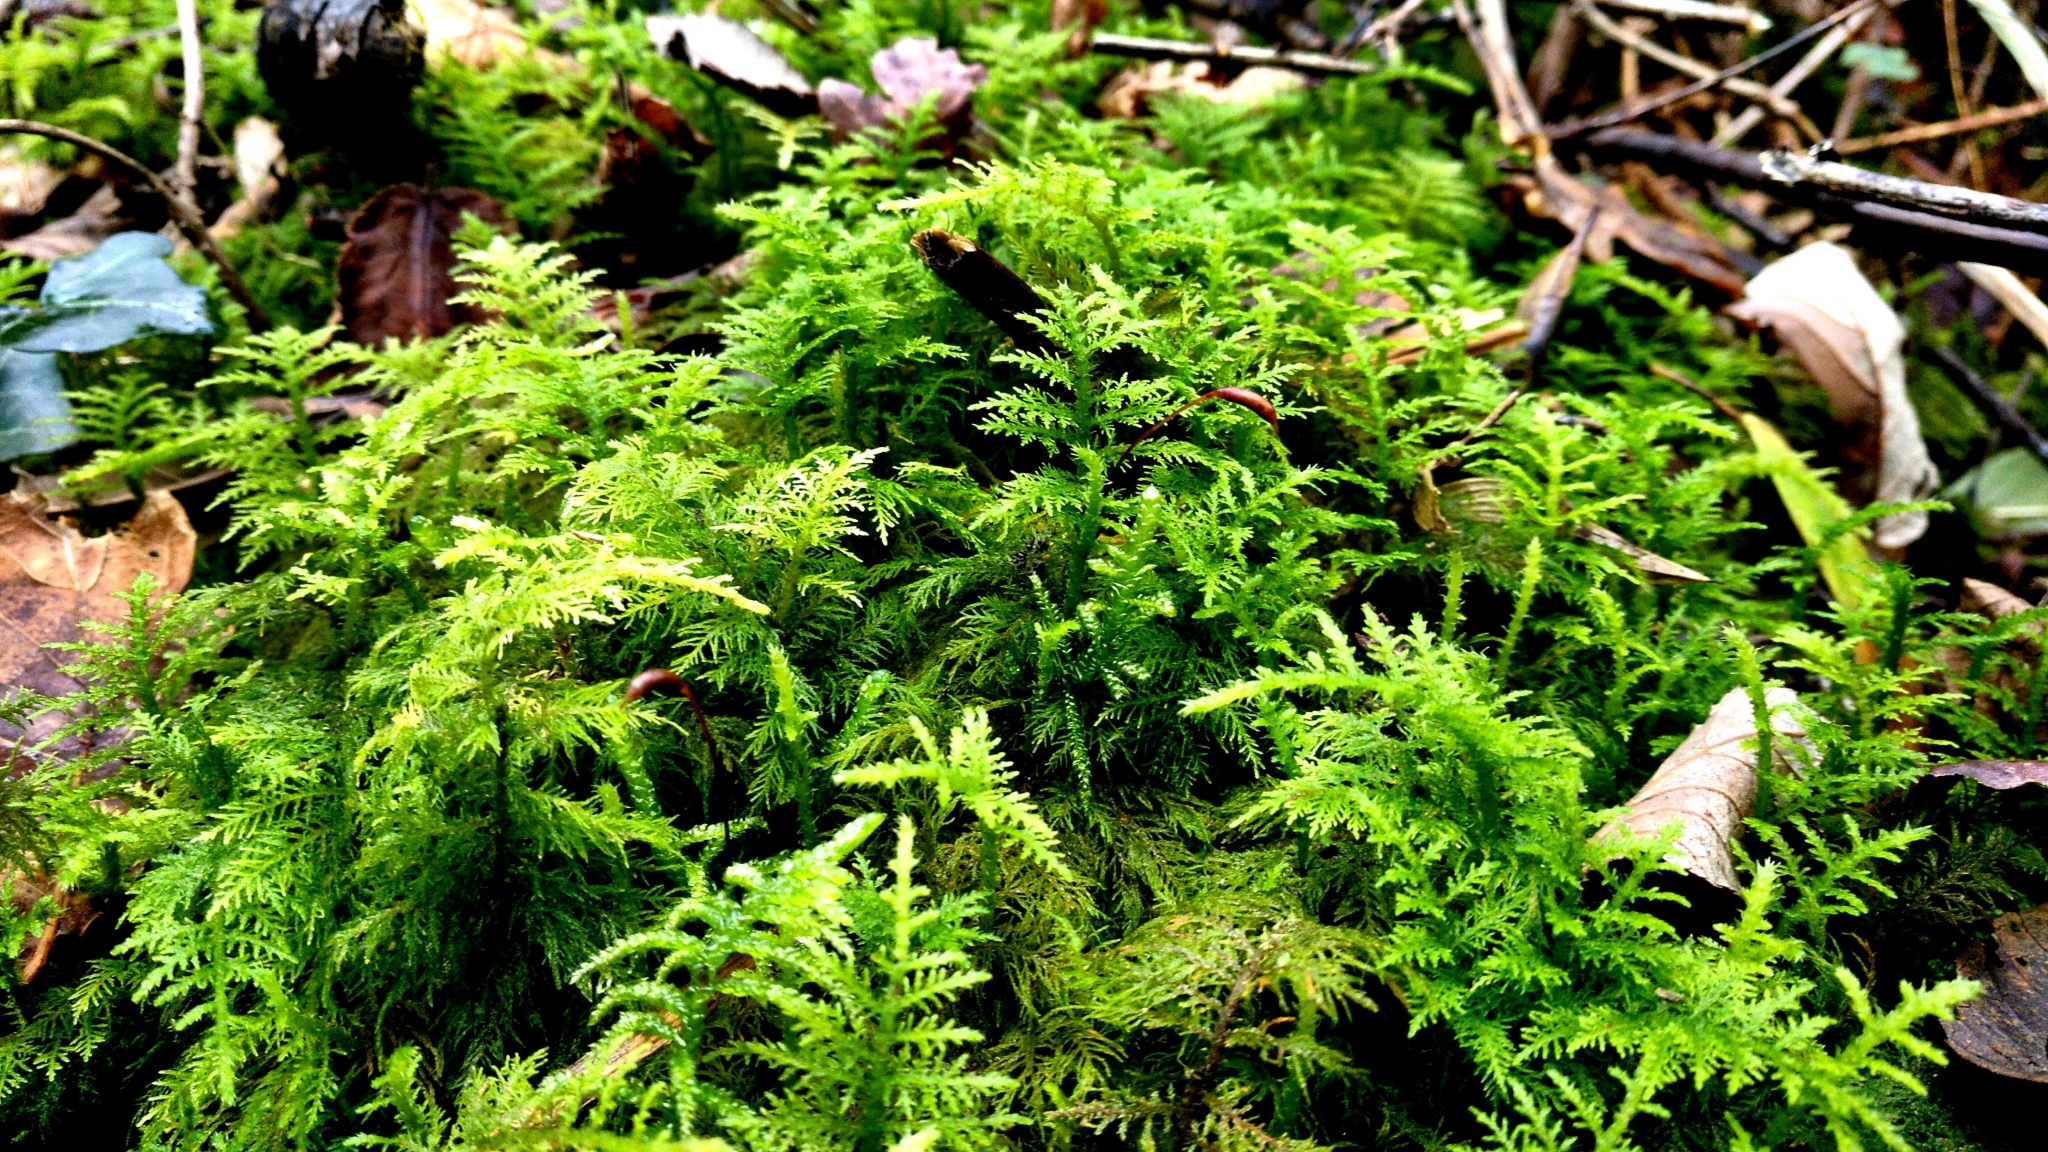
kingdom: Plantae
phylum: Bryophyta
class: Bryopsida
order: Hypnales
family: Thuidiaceae
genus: Thuidium
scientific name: Thuidium tamariscinum
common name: Common tamarisk-moss
